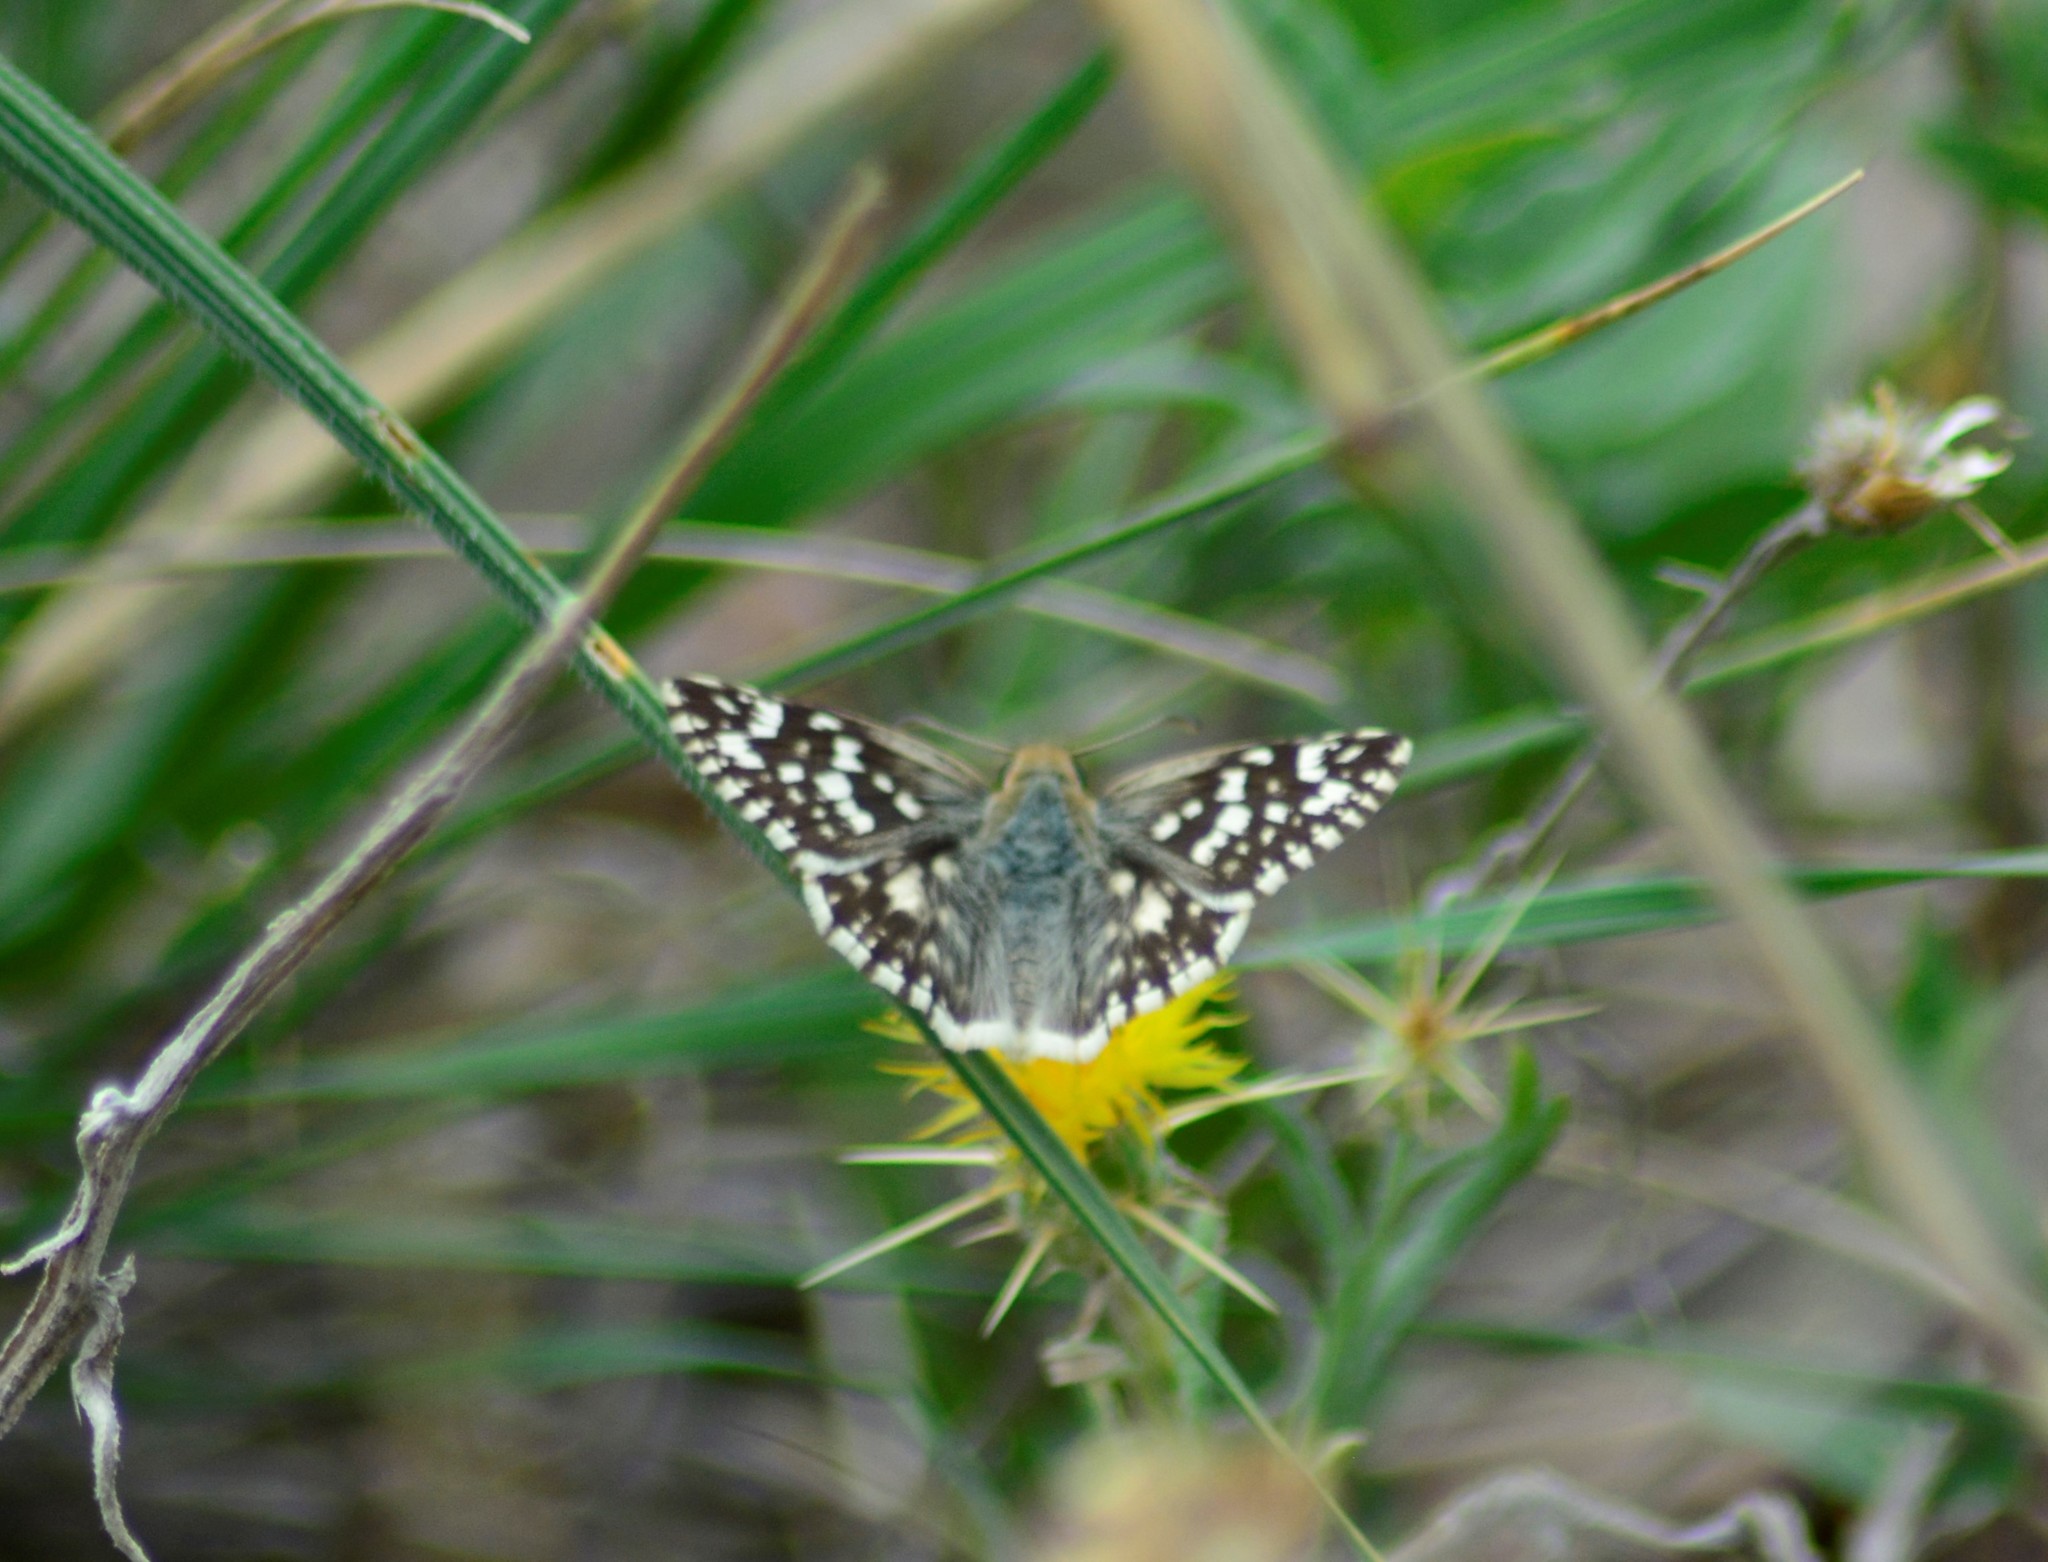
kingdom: Animalia
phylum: Arthropoda
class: Insecta
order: Lepidoptera
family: Hesperiidae
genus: Heliopetes
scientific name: Heliopetes americanus
